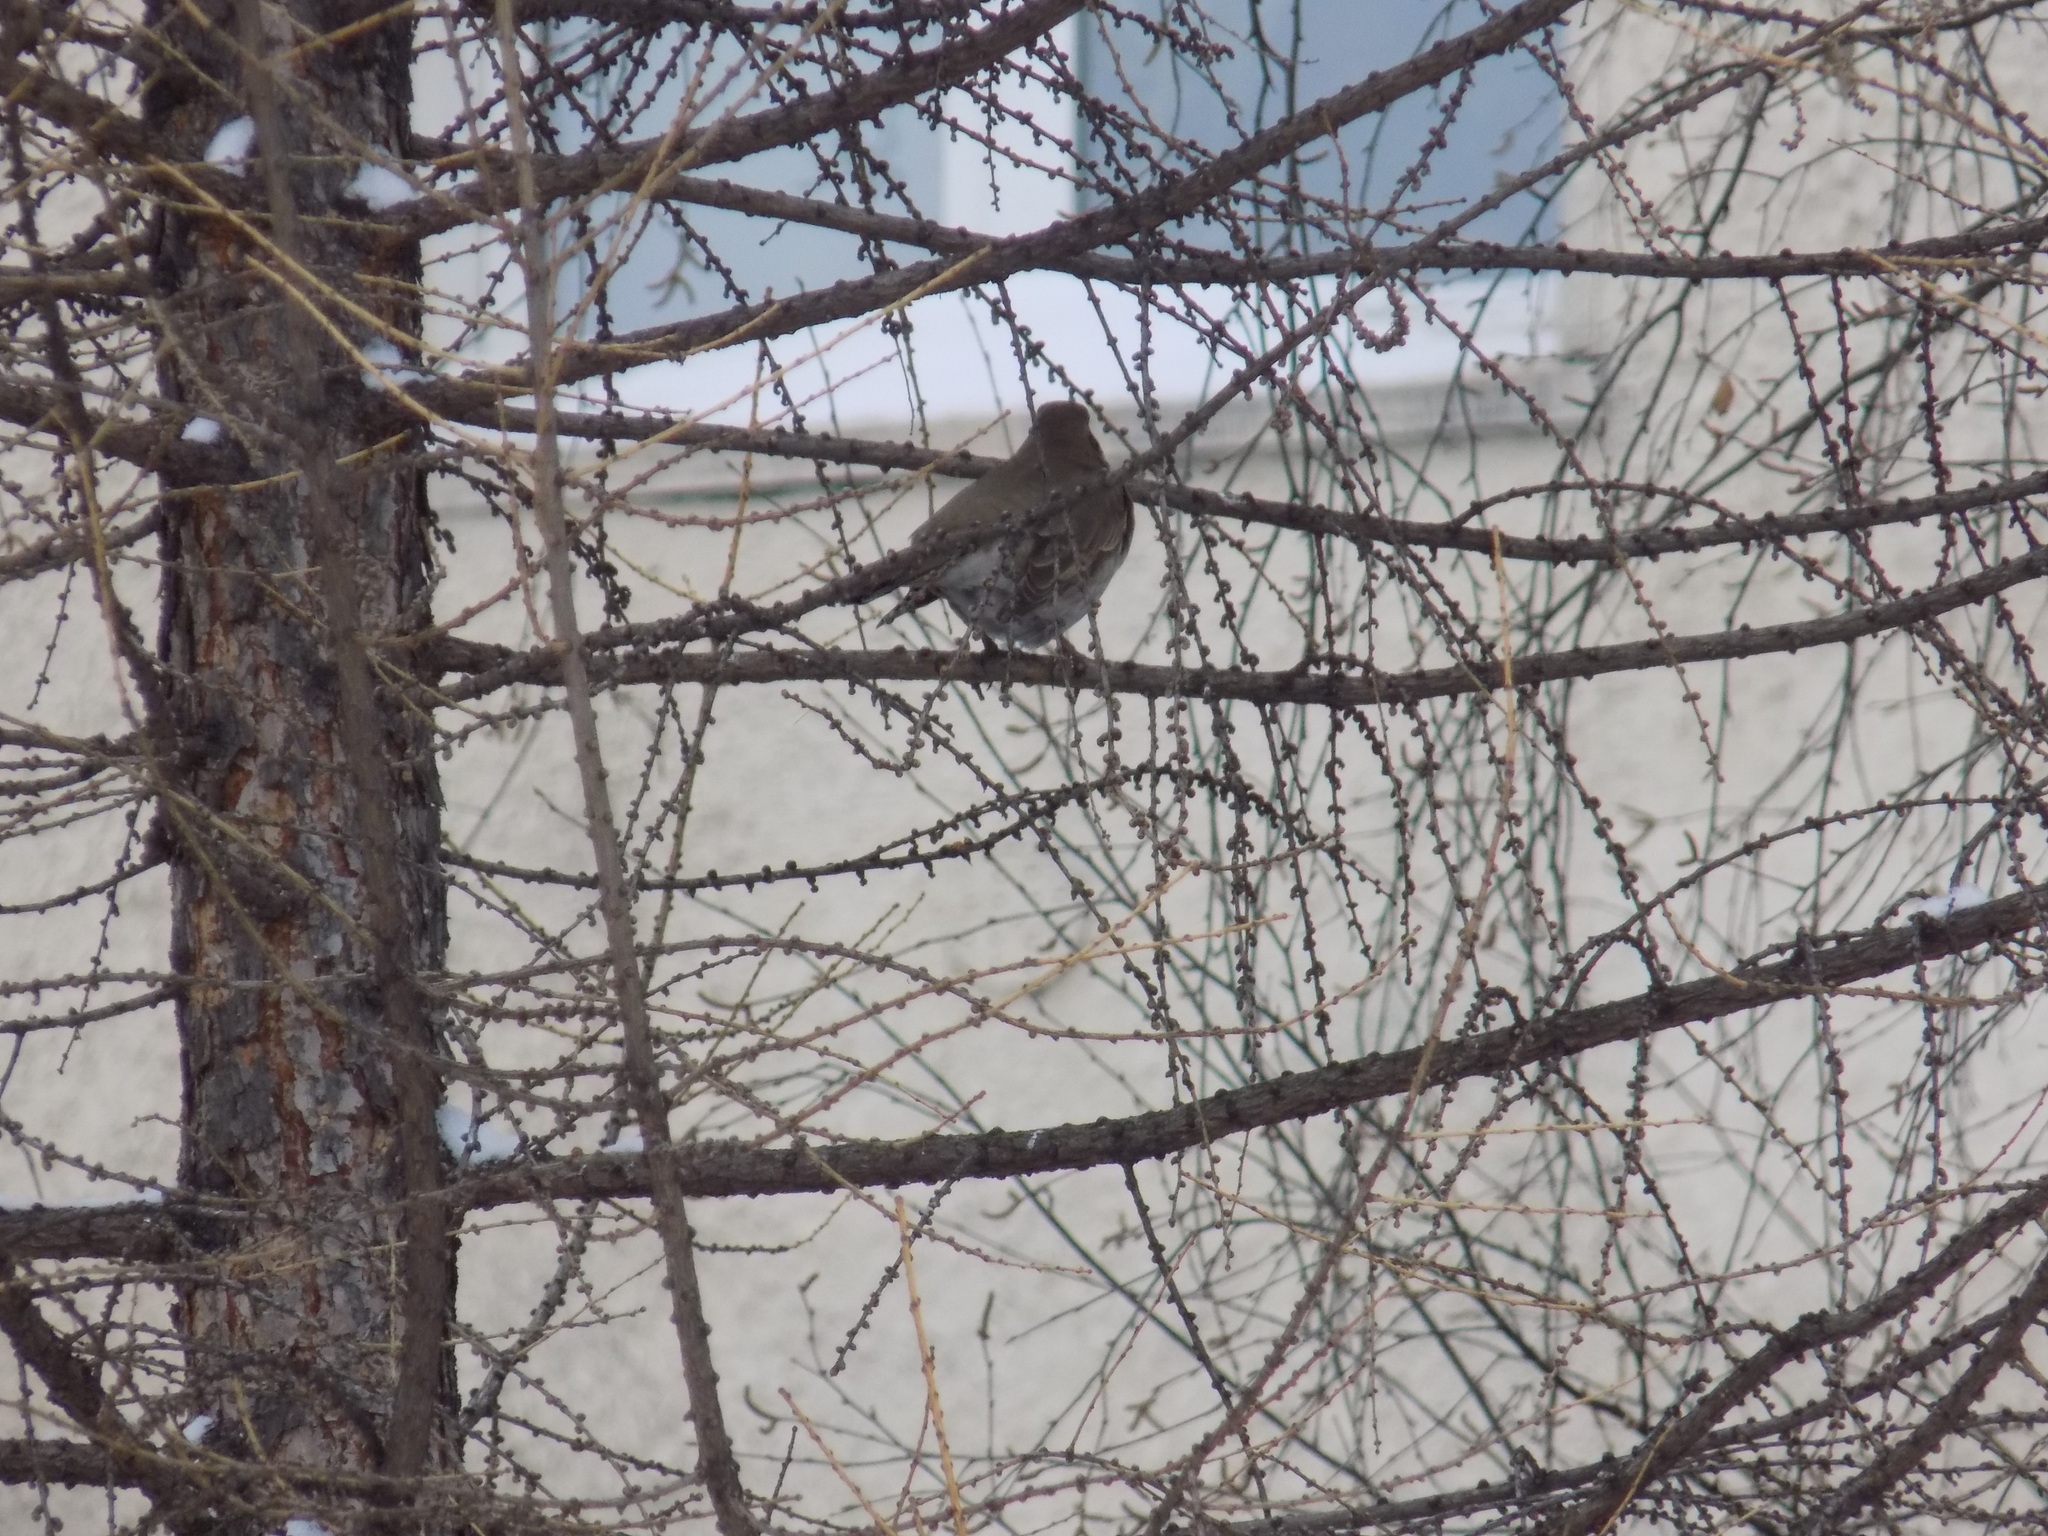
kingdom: Animalia
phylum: Chordata
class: Aves
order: Passeriformes
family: Turdidae
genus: Turdus
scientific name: Turdus atrogularis
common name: Black-throated thrush
